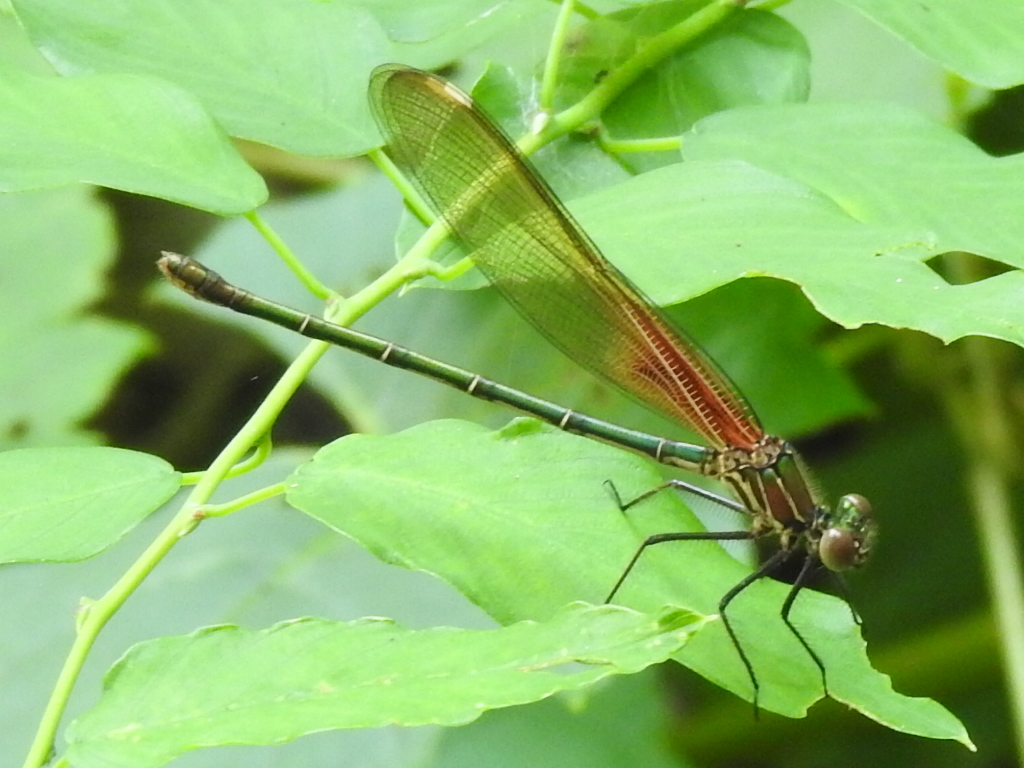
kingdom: Animalia
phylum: Arthropoda
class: Insecta
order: Odonata
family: Calopterygidae
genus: Hetaerina
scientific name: Hetaerina americana
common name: American rubyspot
